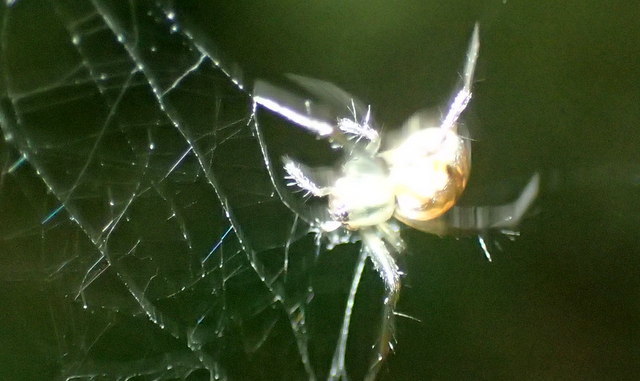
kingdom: Animalia
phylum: Arthropoda
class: Arachnida
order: Araneae
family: Araneidae
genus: Mangora
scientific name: Mangora placida
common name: Tuft-legged orbweaver
